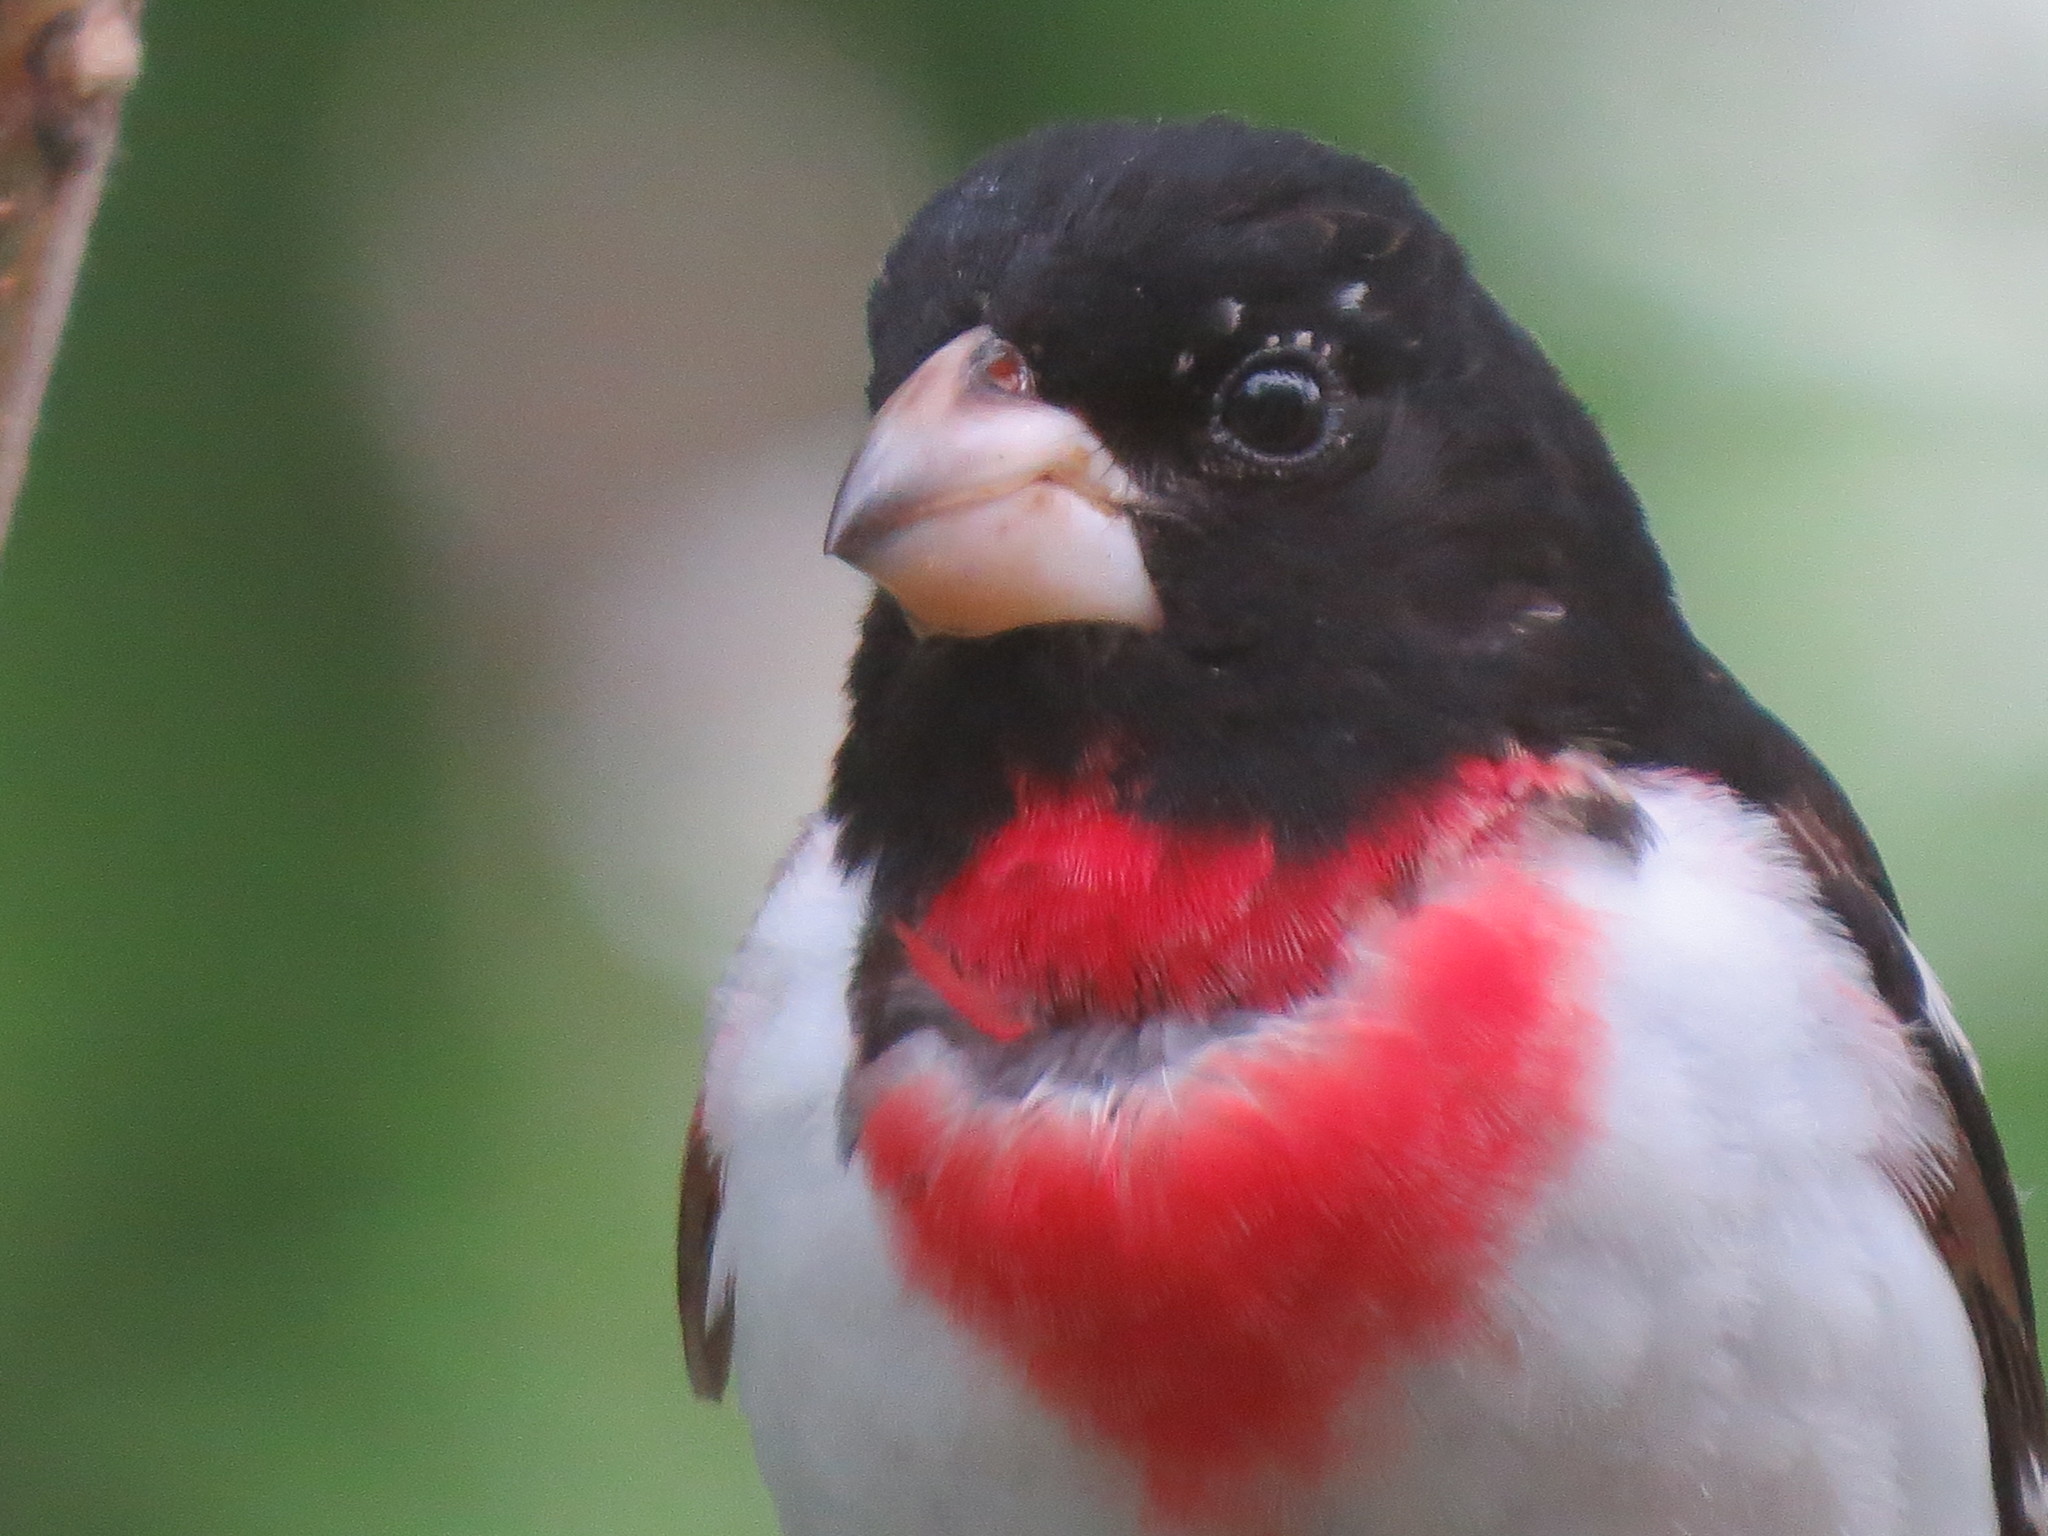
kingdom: Animalia
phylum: Chordata
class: Aves
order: Passeriformes
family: Cardinalidae
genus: Pheucticus
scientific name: Pheucticus ludovicianus
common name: Rose-breasted grosbeak
